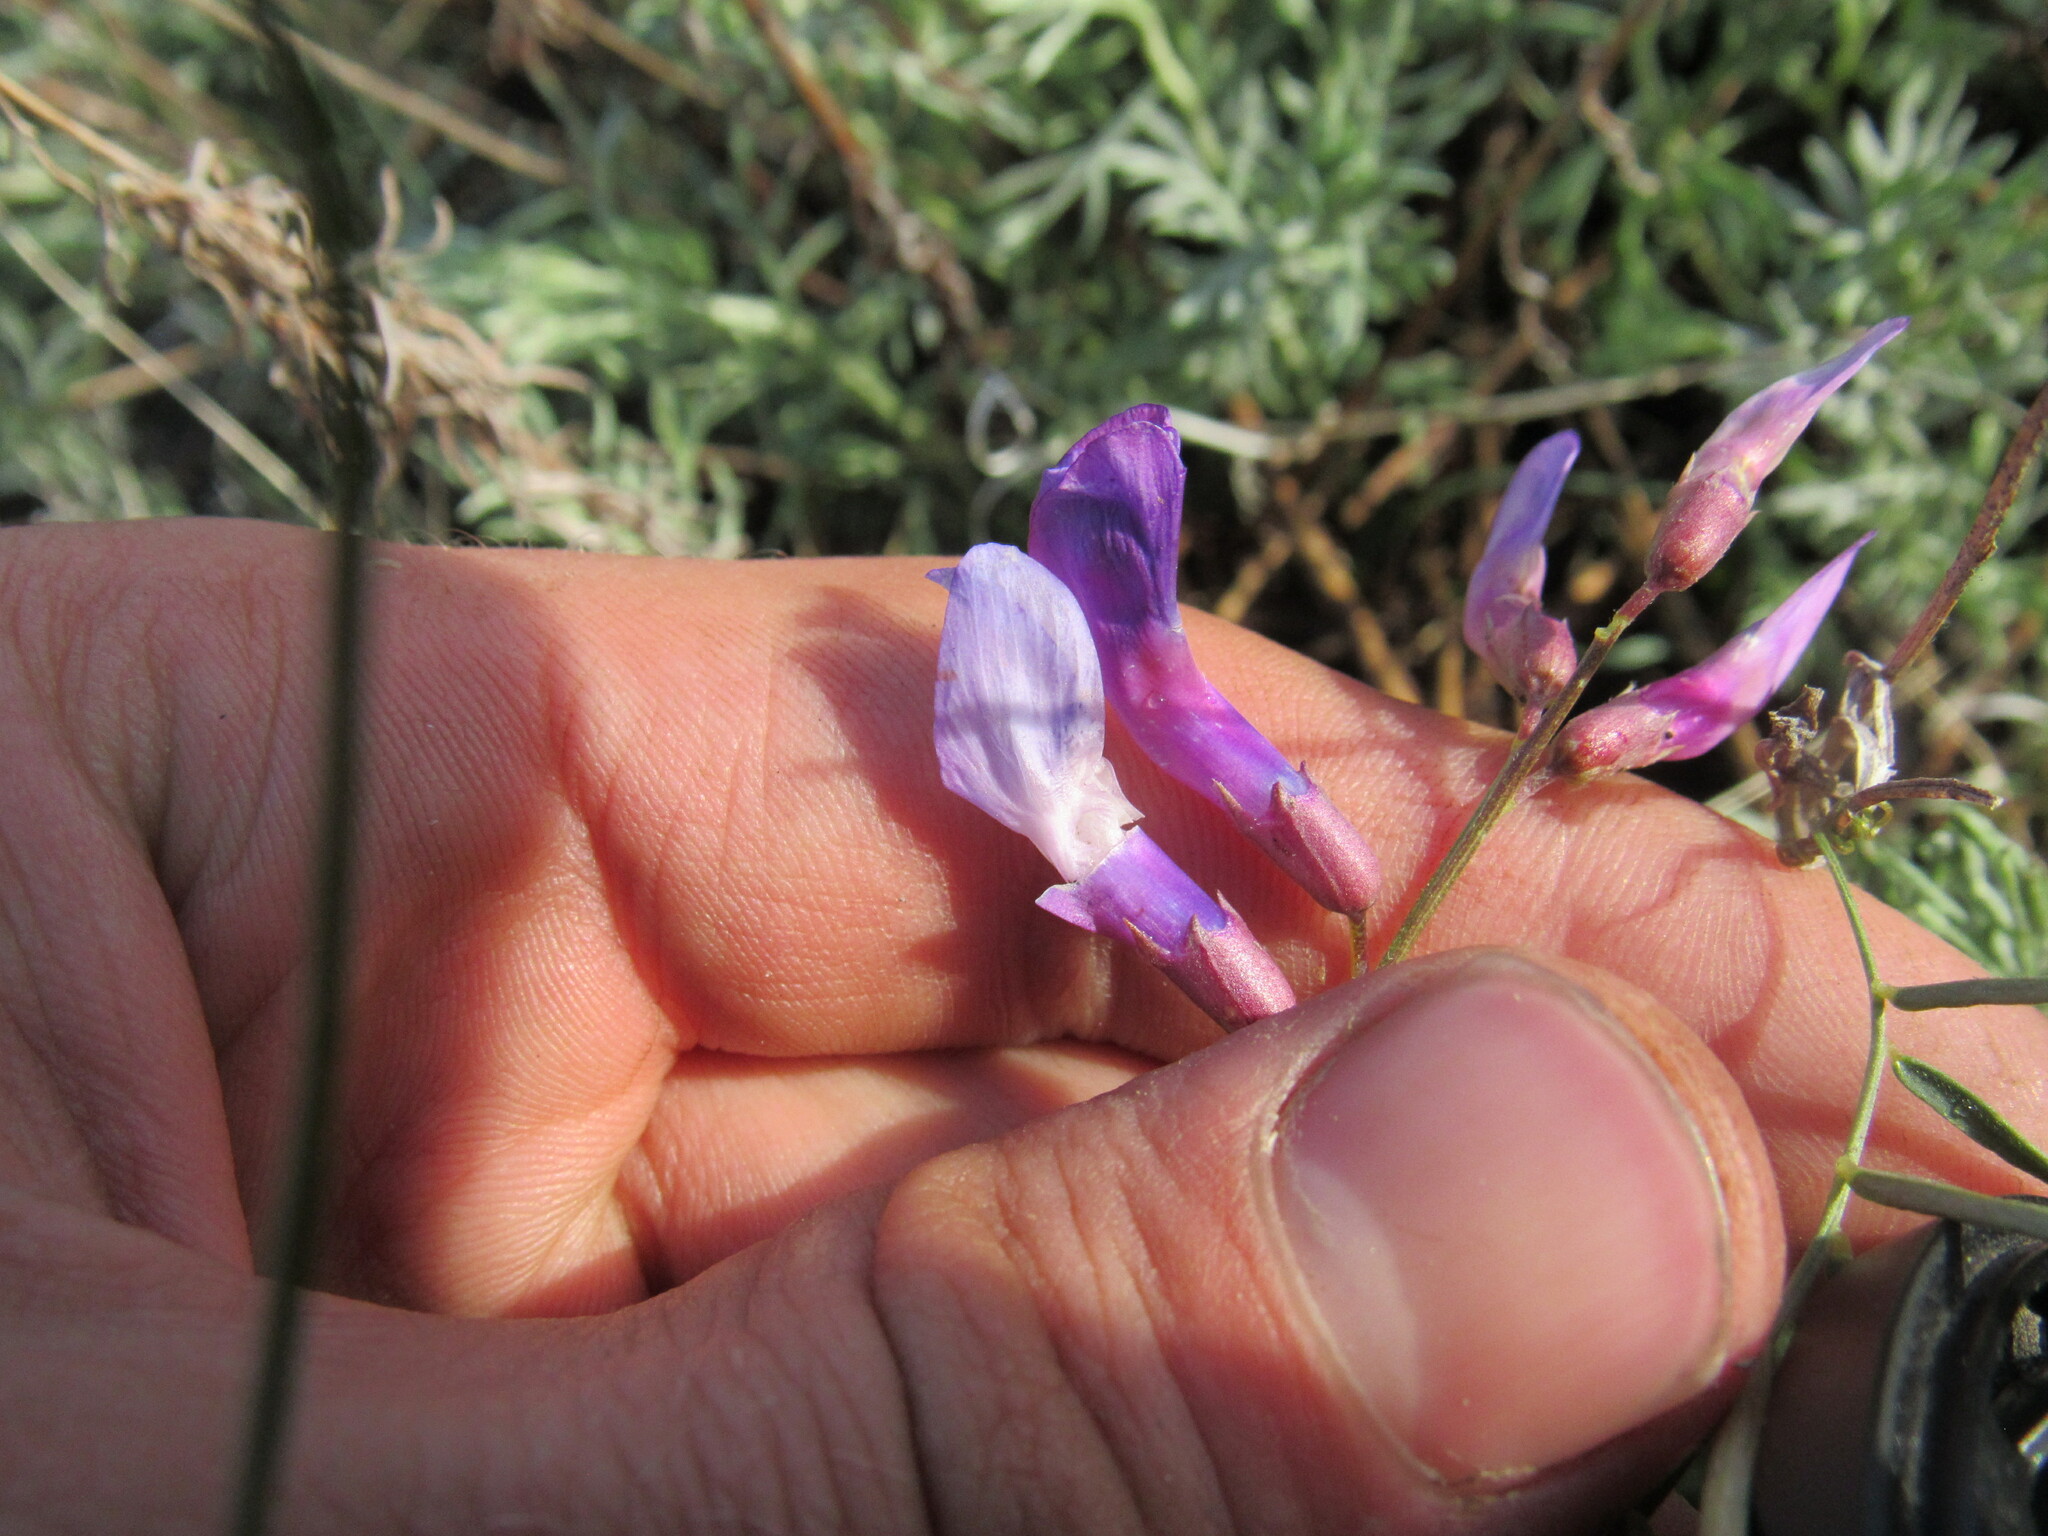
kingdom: Plantae
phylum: Tracheophyta
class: Magnoliopsida
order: Fabales
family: Fabaceae
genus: Vicia
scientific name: Vicia americana
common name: American vetch
